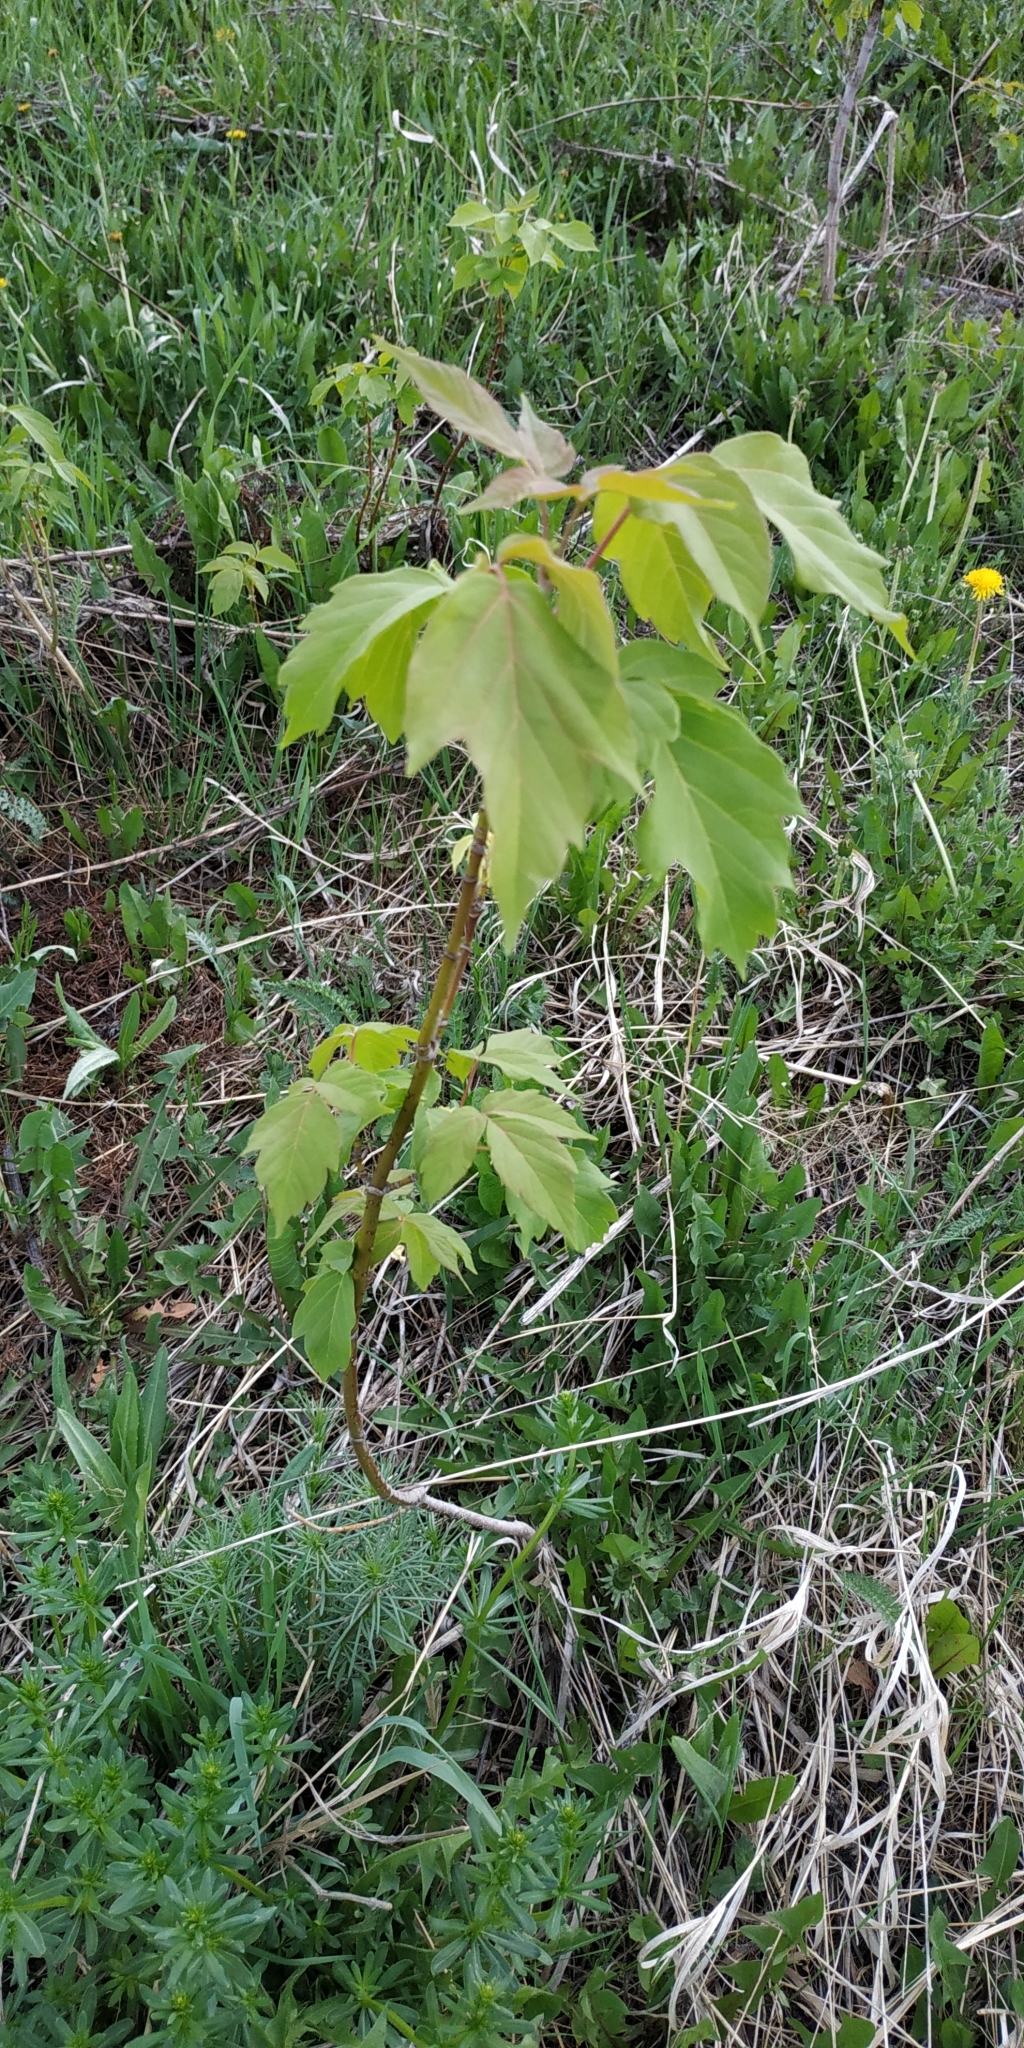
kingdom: Plantae
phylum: Tracheophyta
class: Magnoliopsida
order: Sapindales
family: Sapindaceae
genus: Acer
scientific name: Acer negundo
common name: Ashleaf maple
